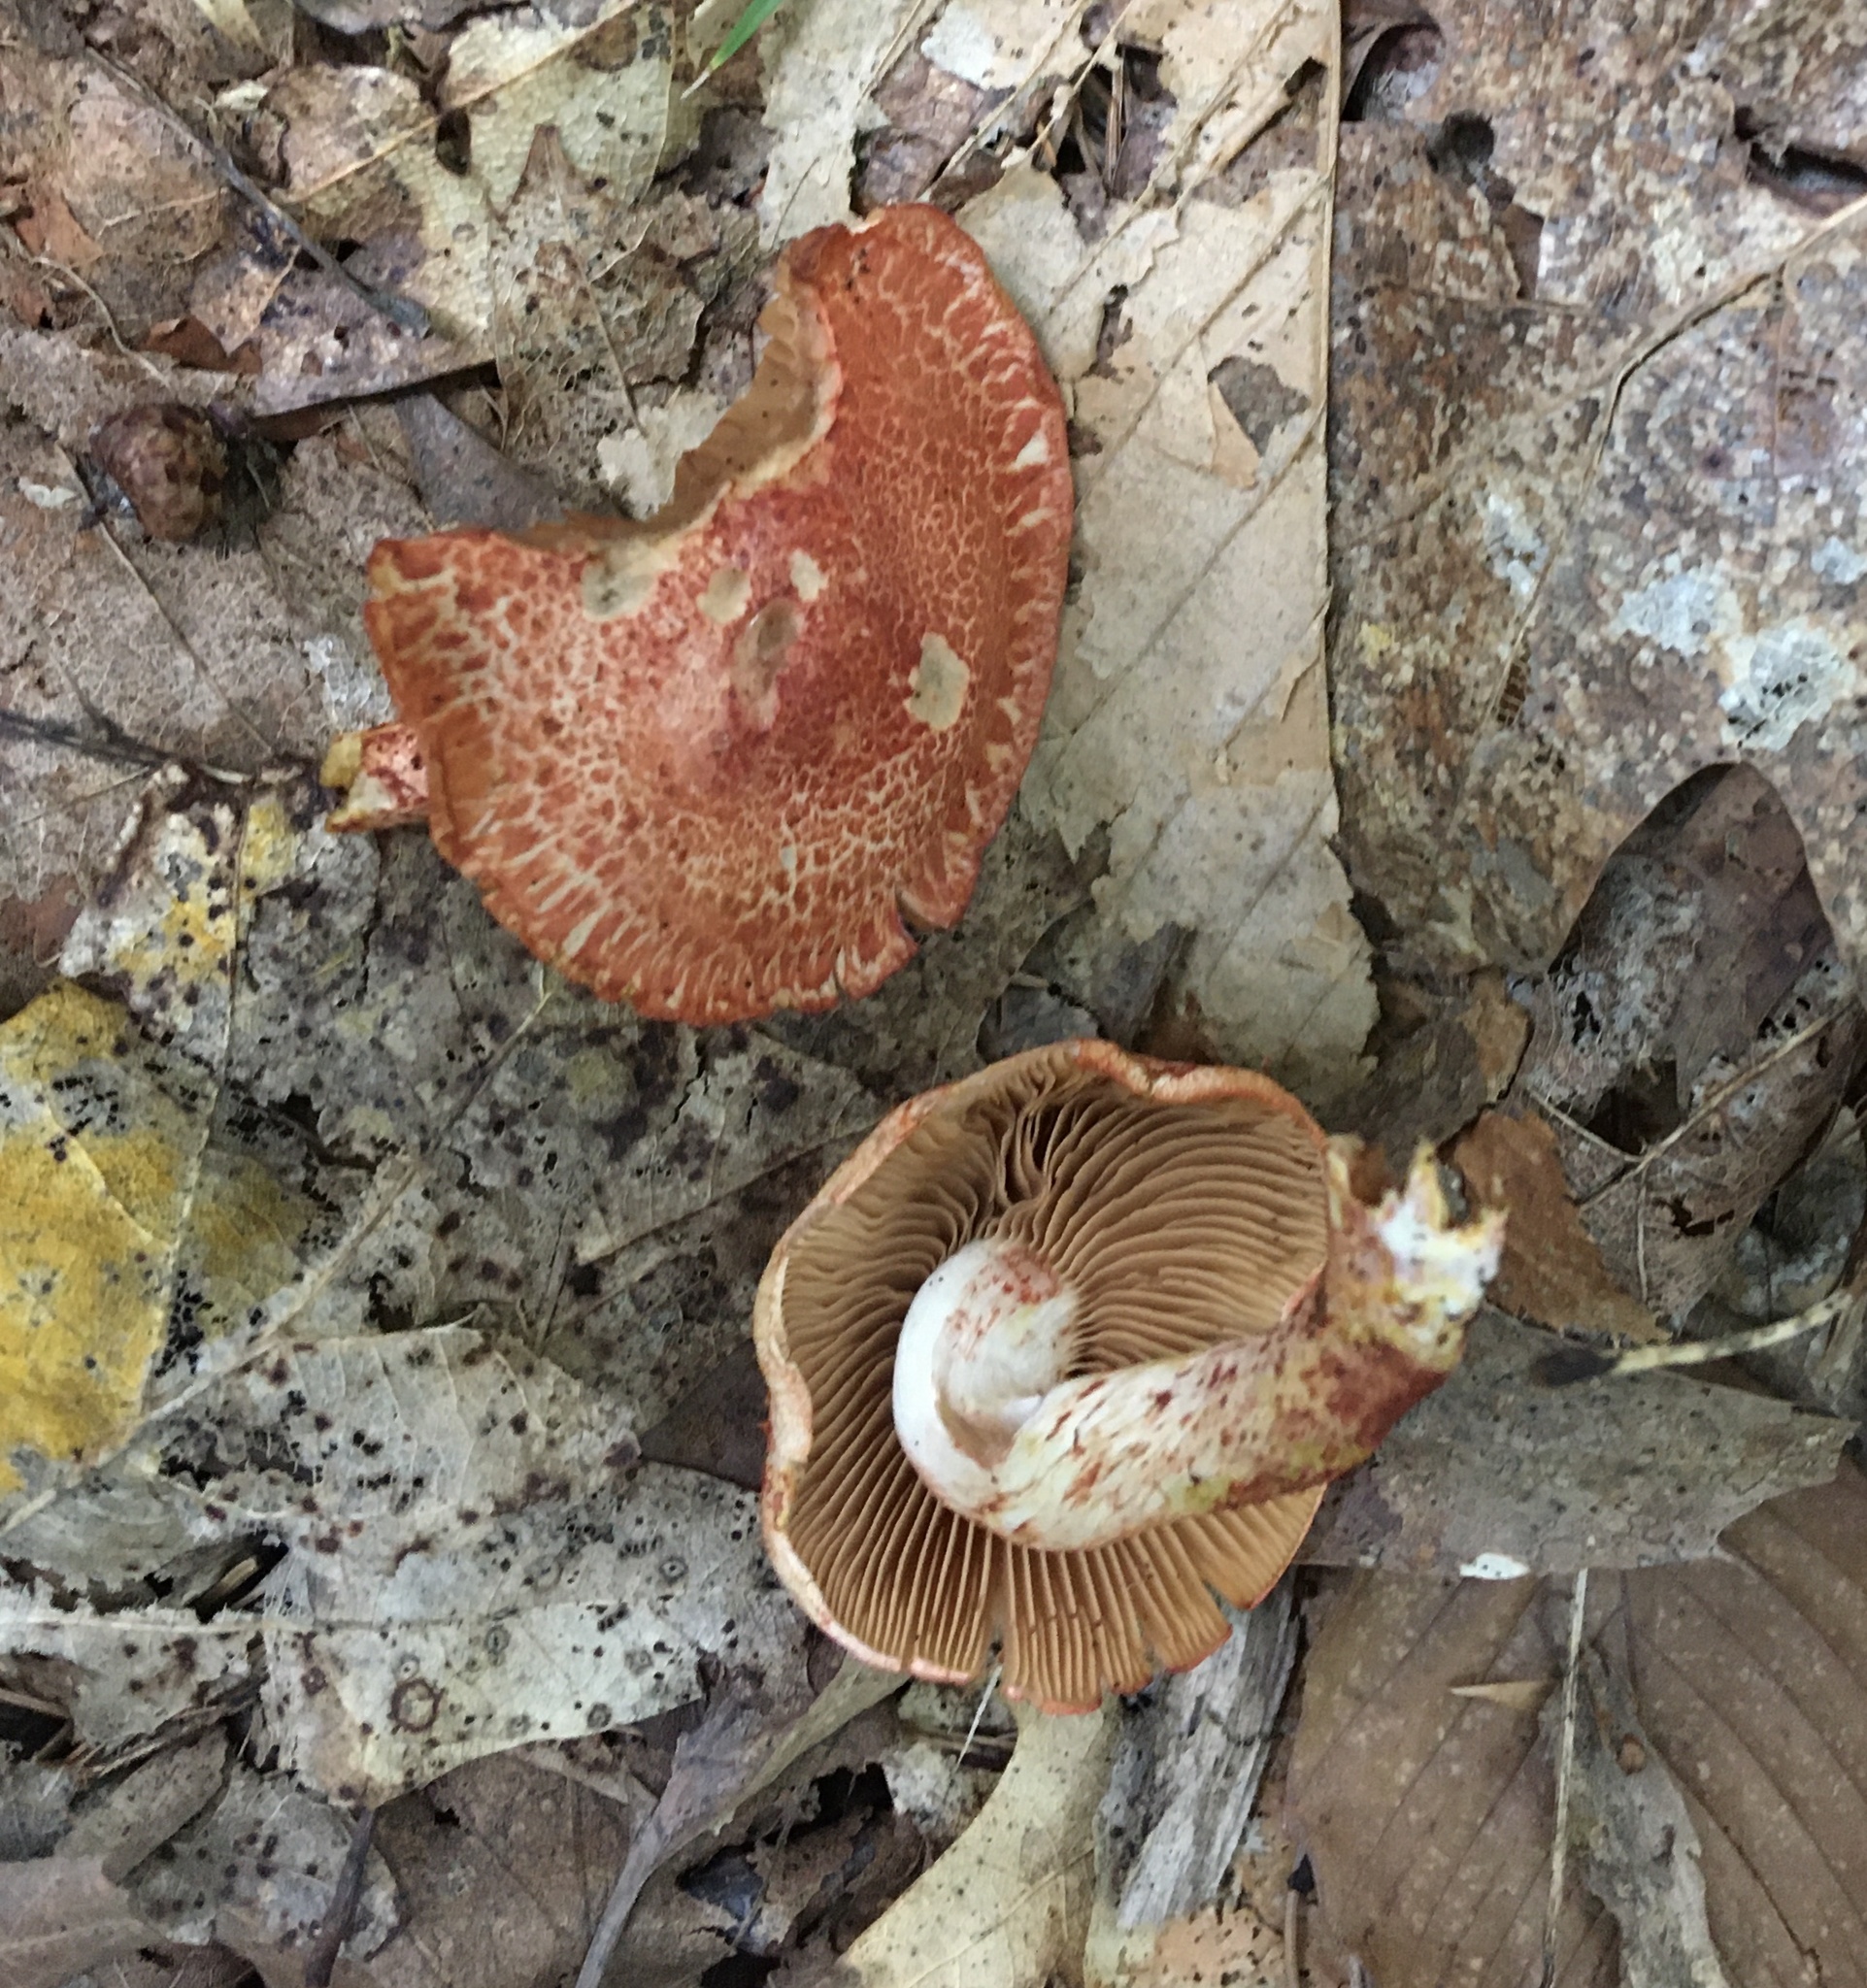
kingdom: Fungi
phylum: Basidiomycota
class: Agaricomycetes
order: Agaricales
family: Cortinariaceae
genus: Cortinarius
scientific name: Cortinarius bolaris
